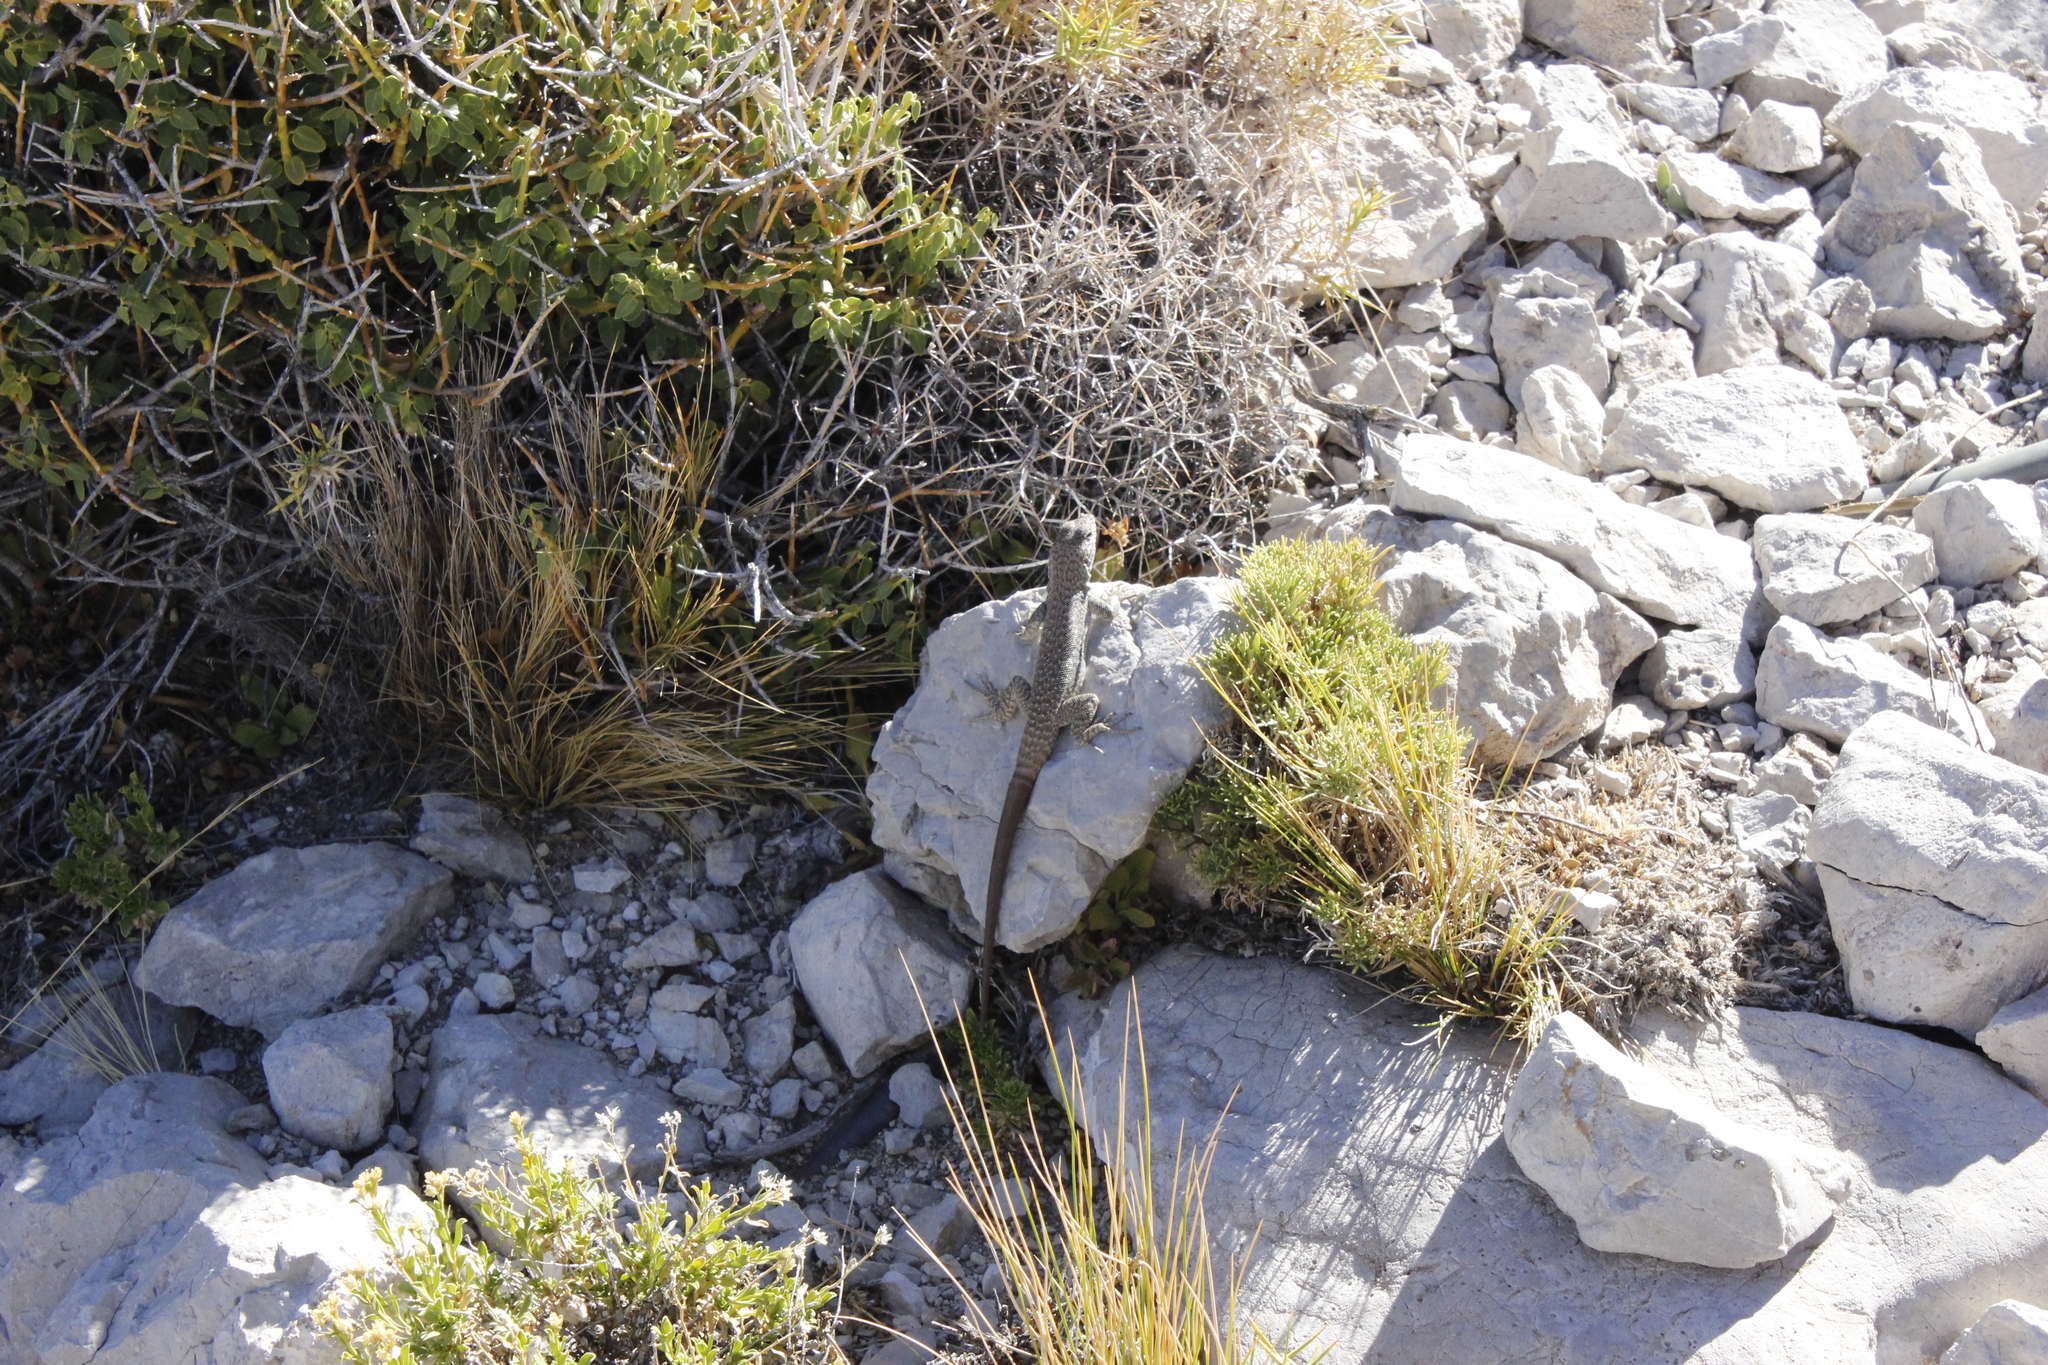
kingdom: Animalia
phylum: Chordata
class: Squamata
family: Liolaemidae
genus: Liolaemus
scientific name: Liolaemus austromendocinus
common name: Austromendocino tree iguana
